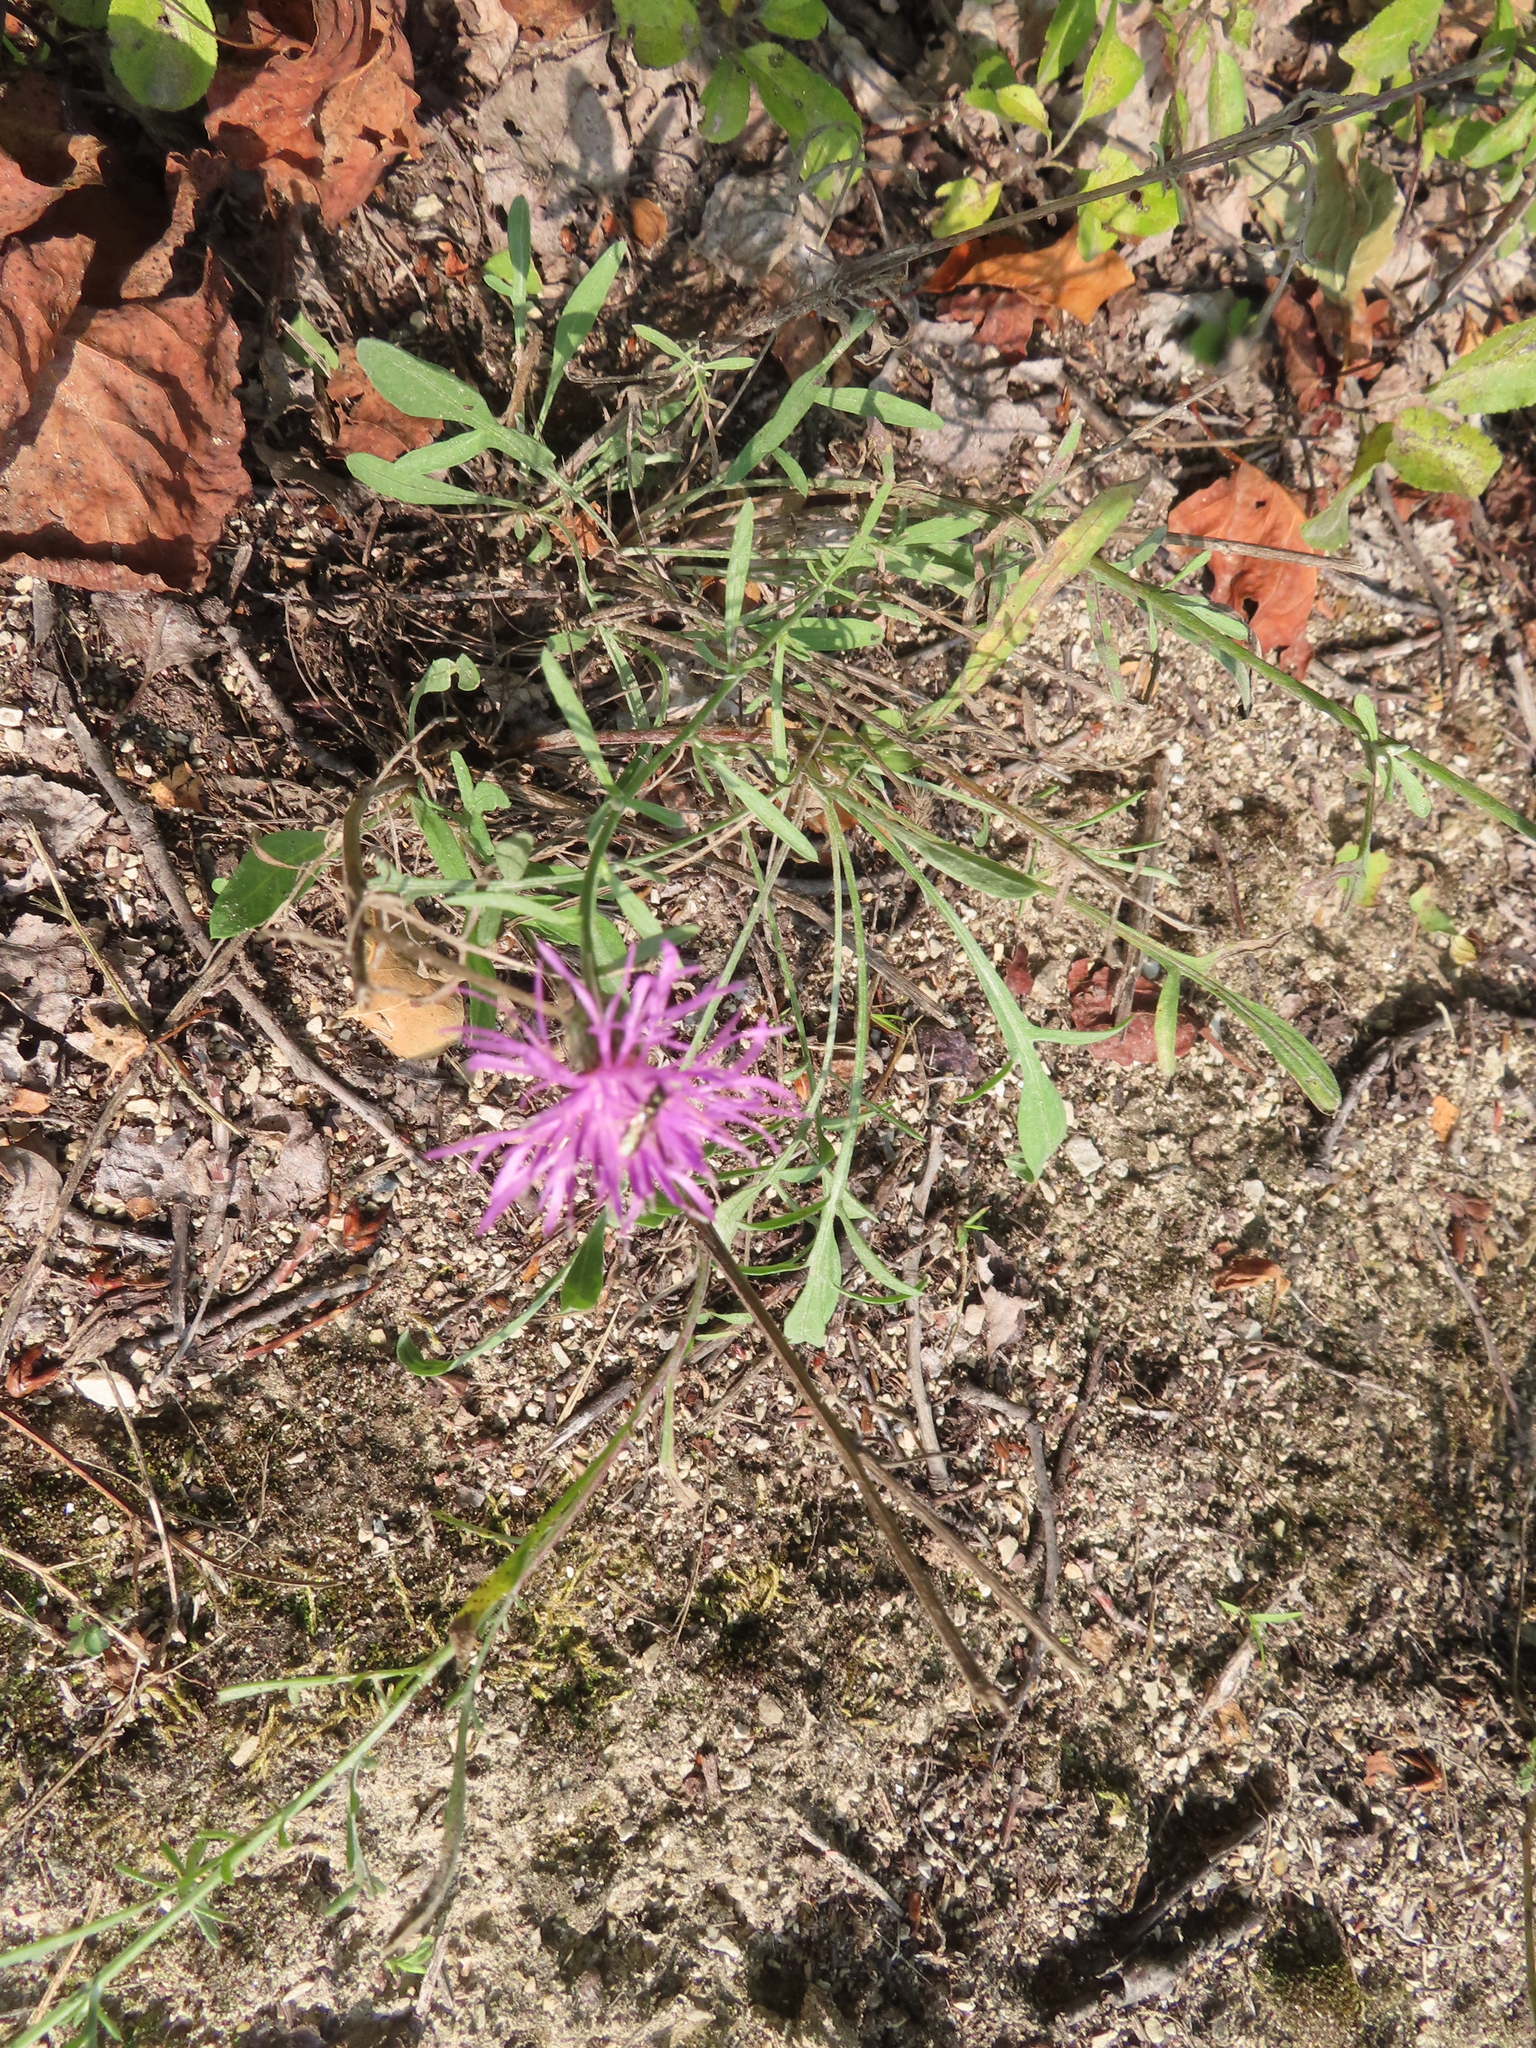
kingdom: Plantae
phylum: Tracheophyta
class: Magnoliopsida
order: Asterales
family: Asteraceae
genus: Centaurea
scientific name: Centaurea stoebe
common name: Spotted knapweed
